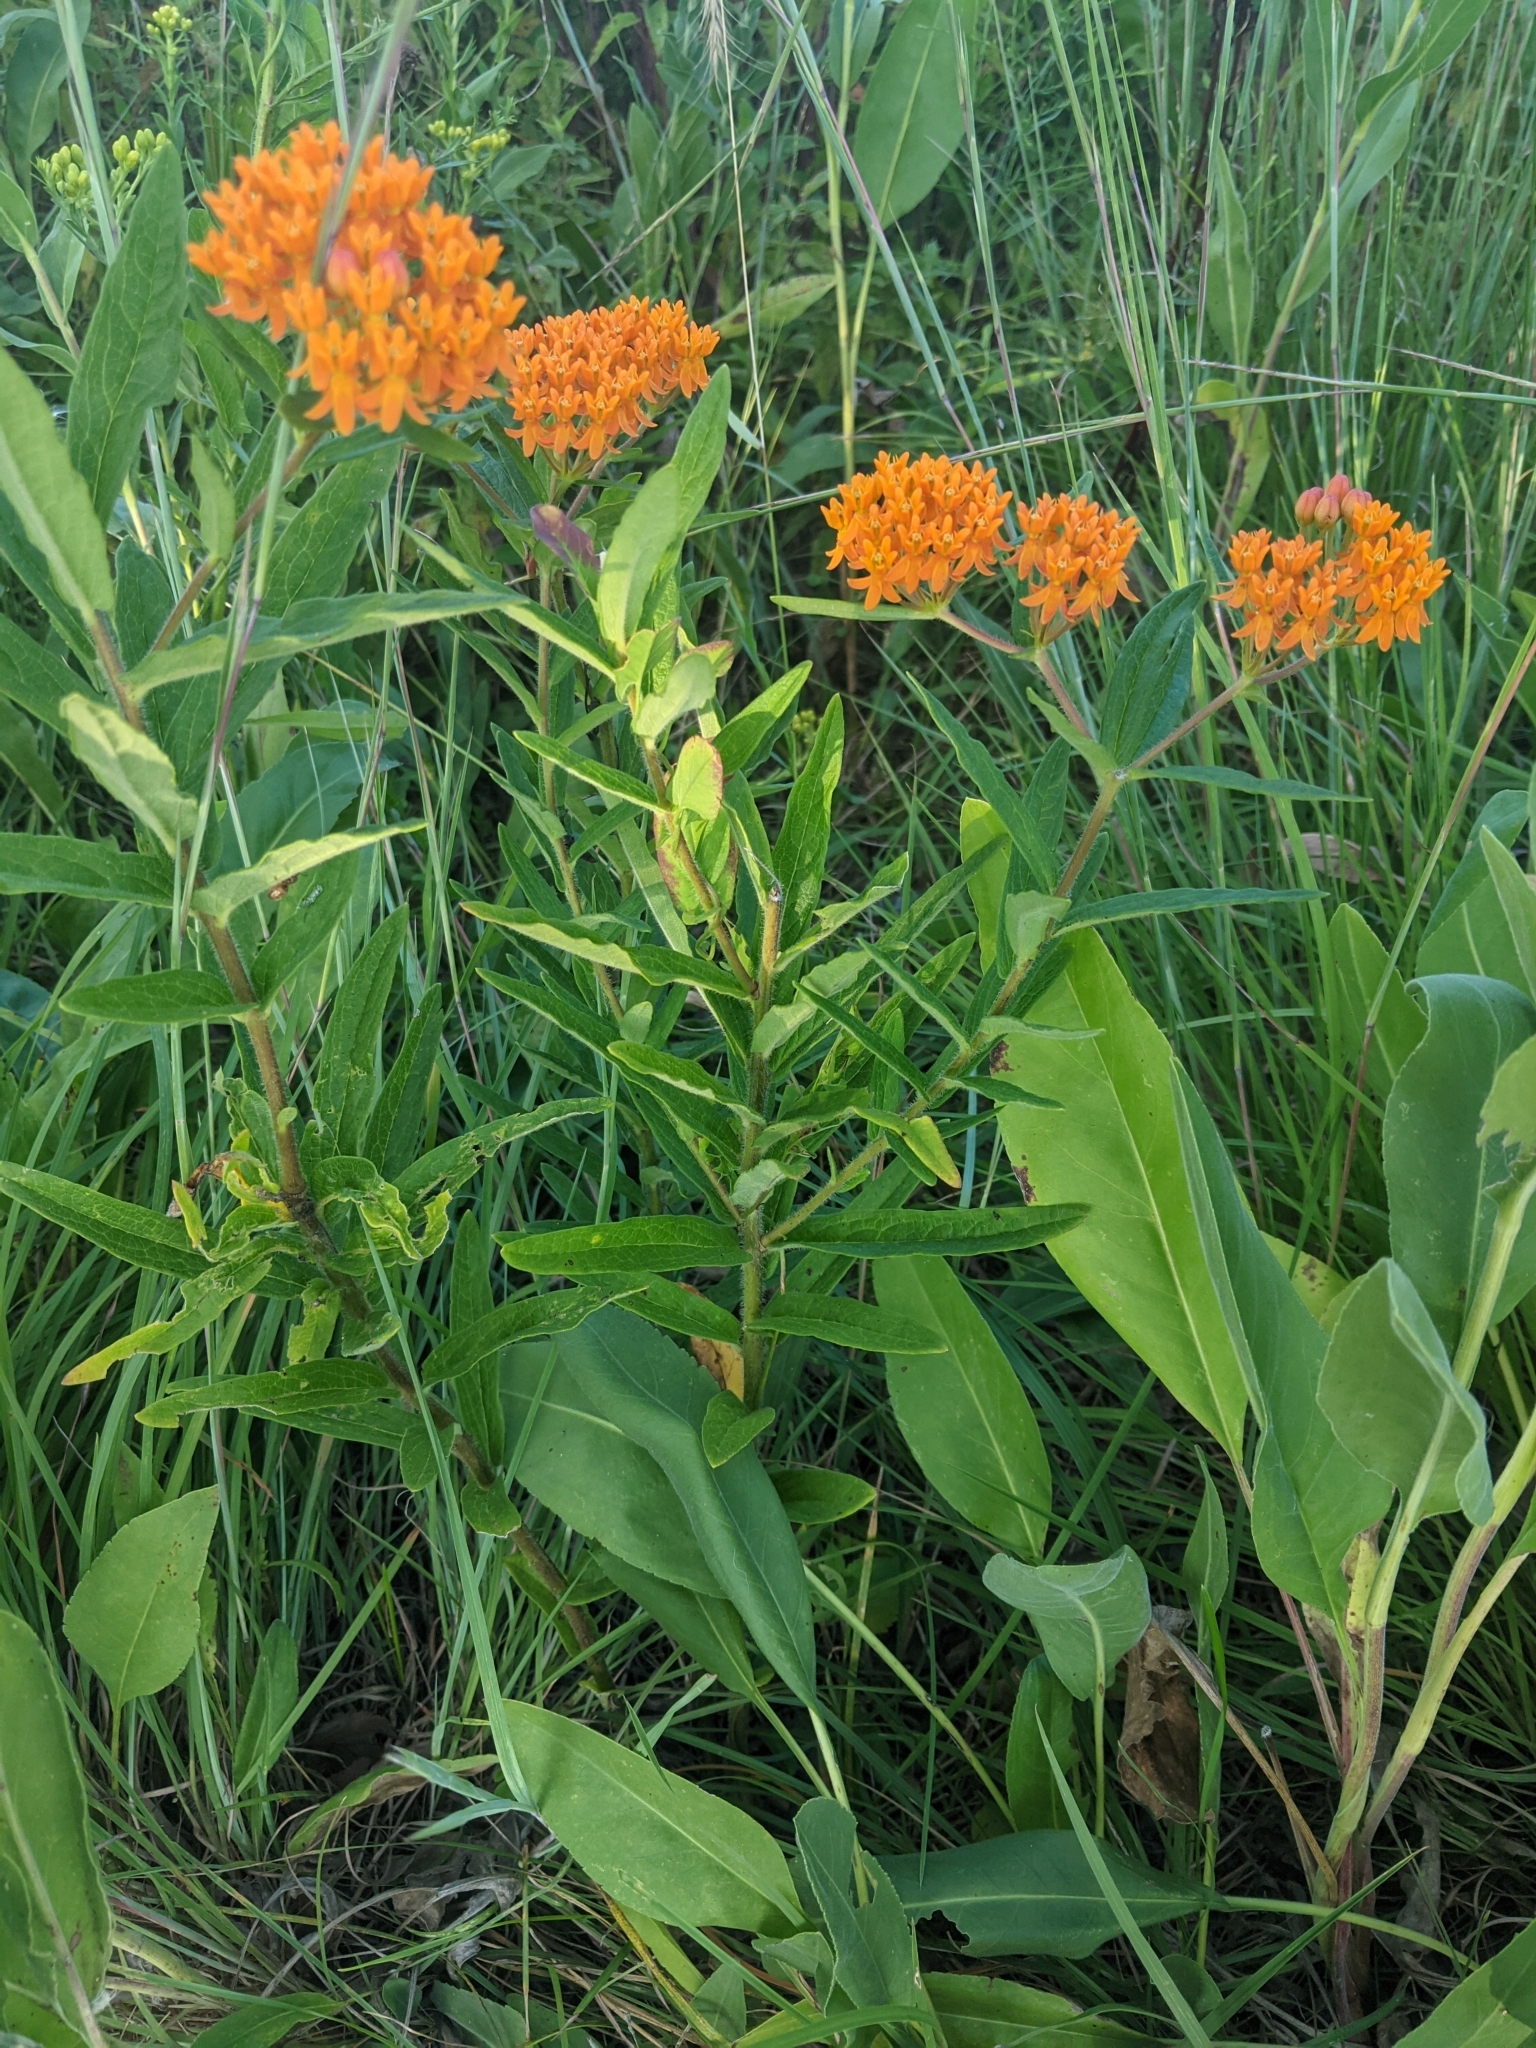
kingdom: Plantae
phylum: Tracheophyta
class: Magnoliopsida
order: Gentianales
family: Apocynaceae
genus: Asclepias
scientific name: Asclepias tuberosa
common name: Butterfly milkweed
